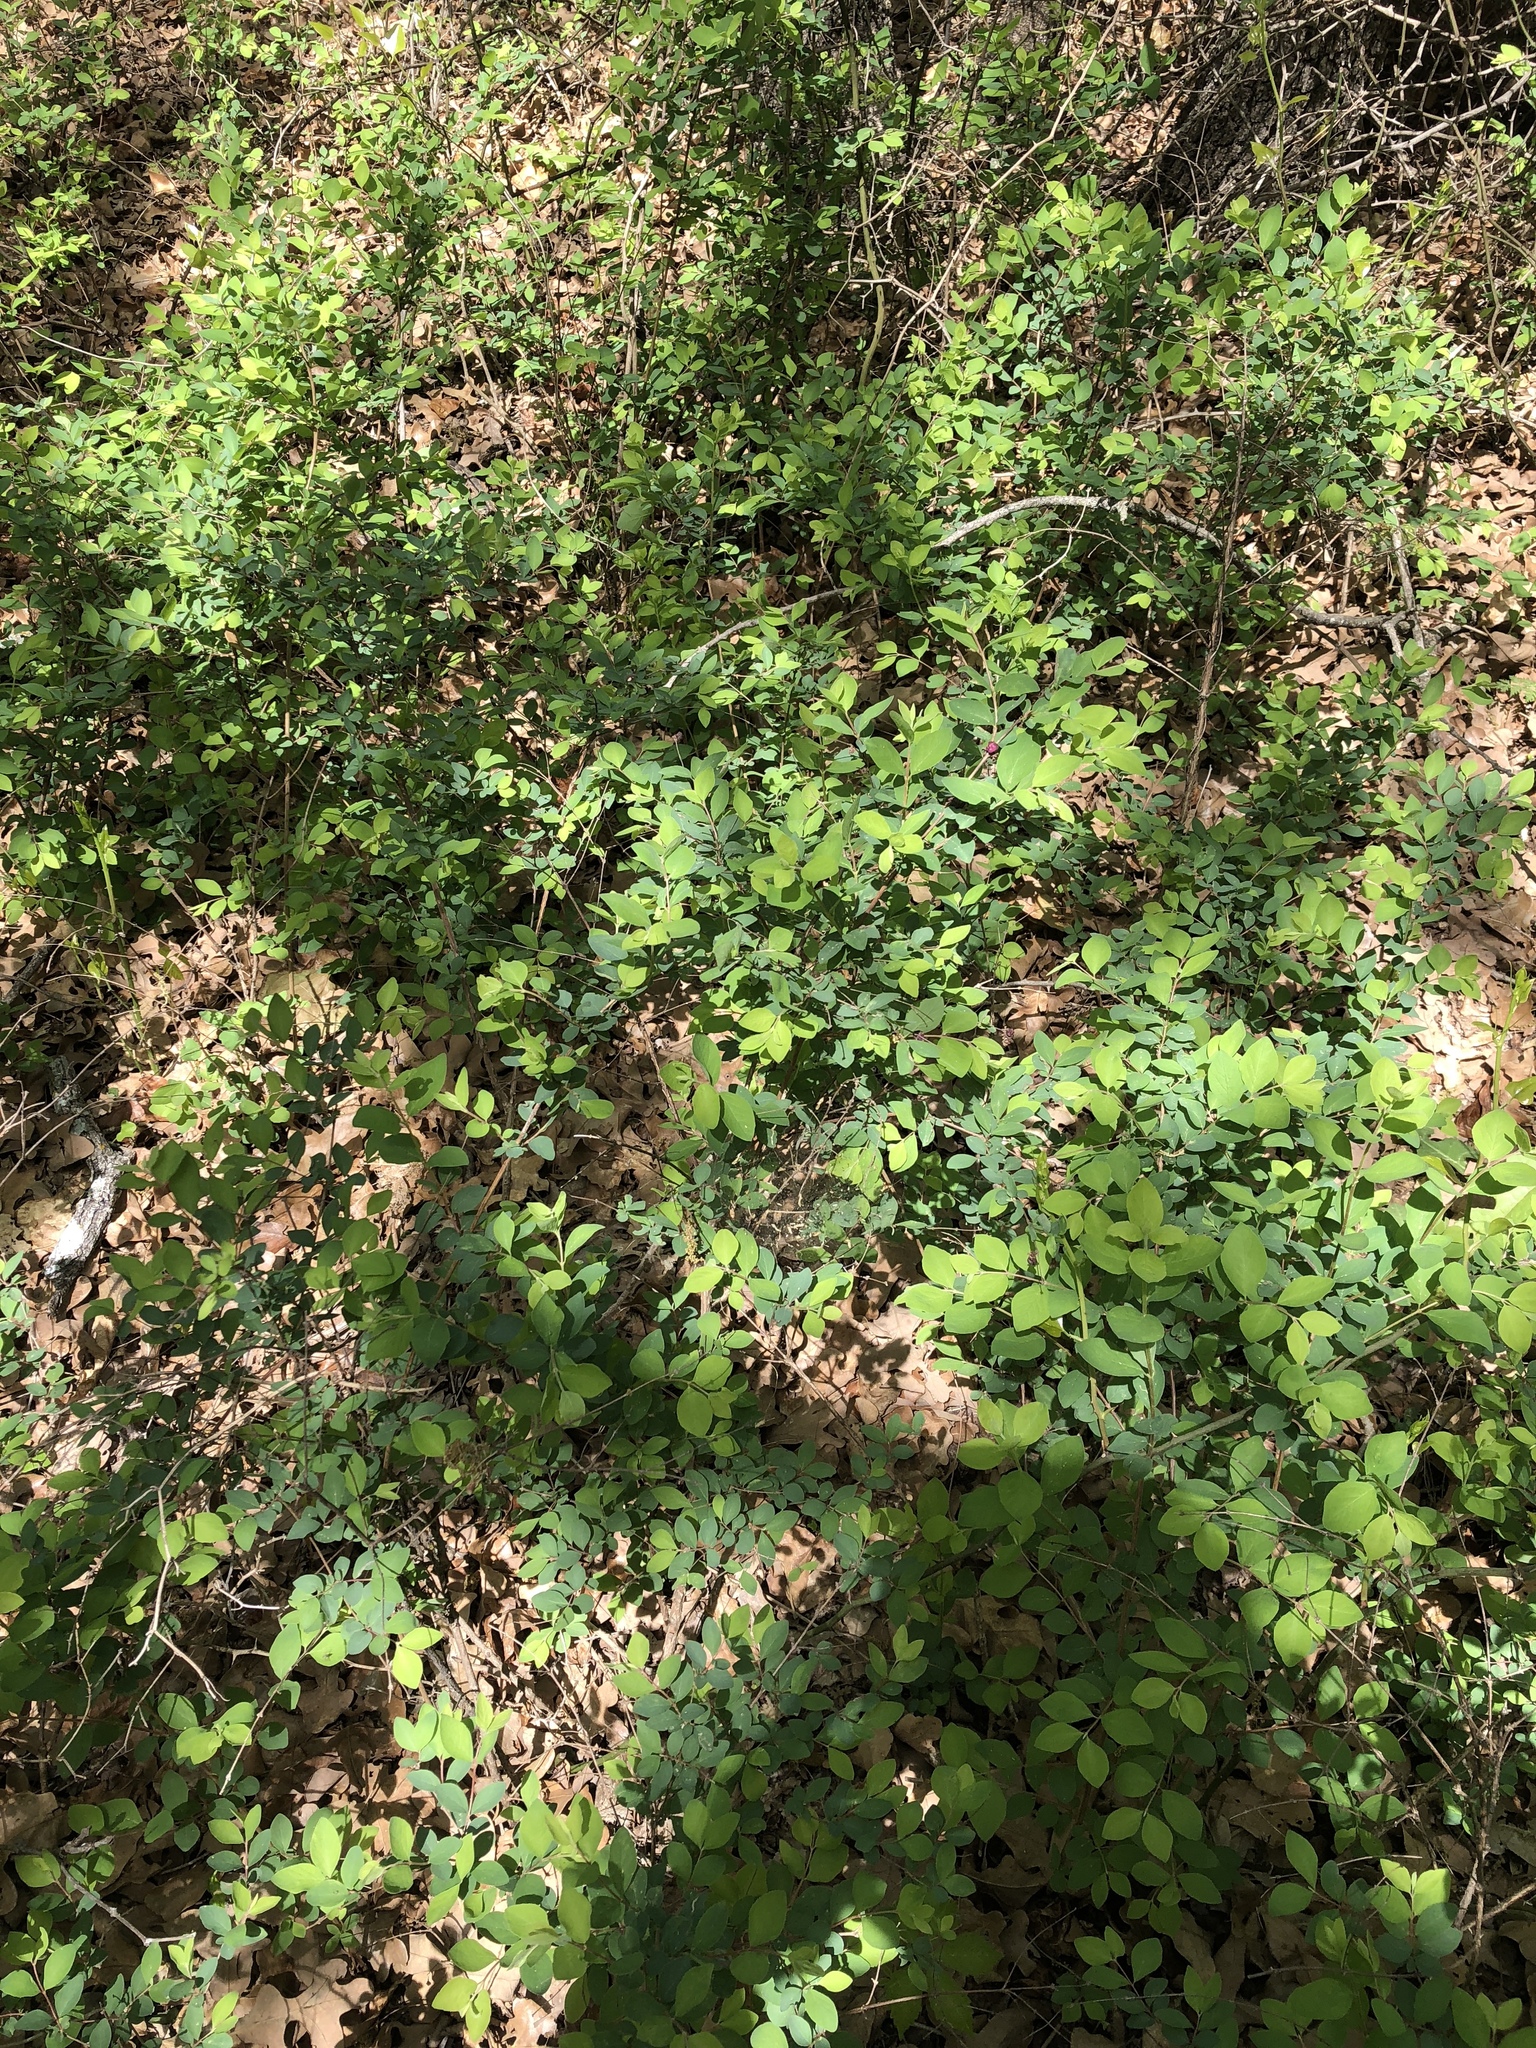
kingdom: Plantae
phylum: Tracheophyta
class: Magnoliopsida
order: Dipsacales
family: Caprifoliaceae
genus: Symphoricarpos
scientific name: Symphoricarpos orbiculatus
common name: Coralberry
